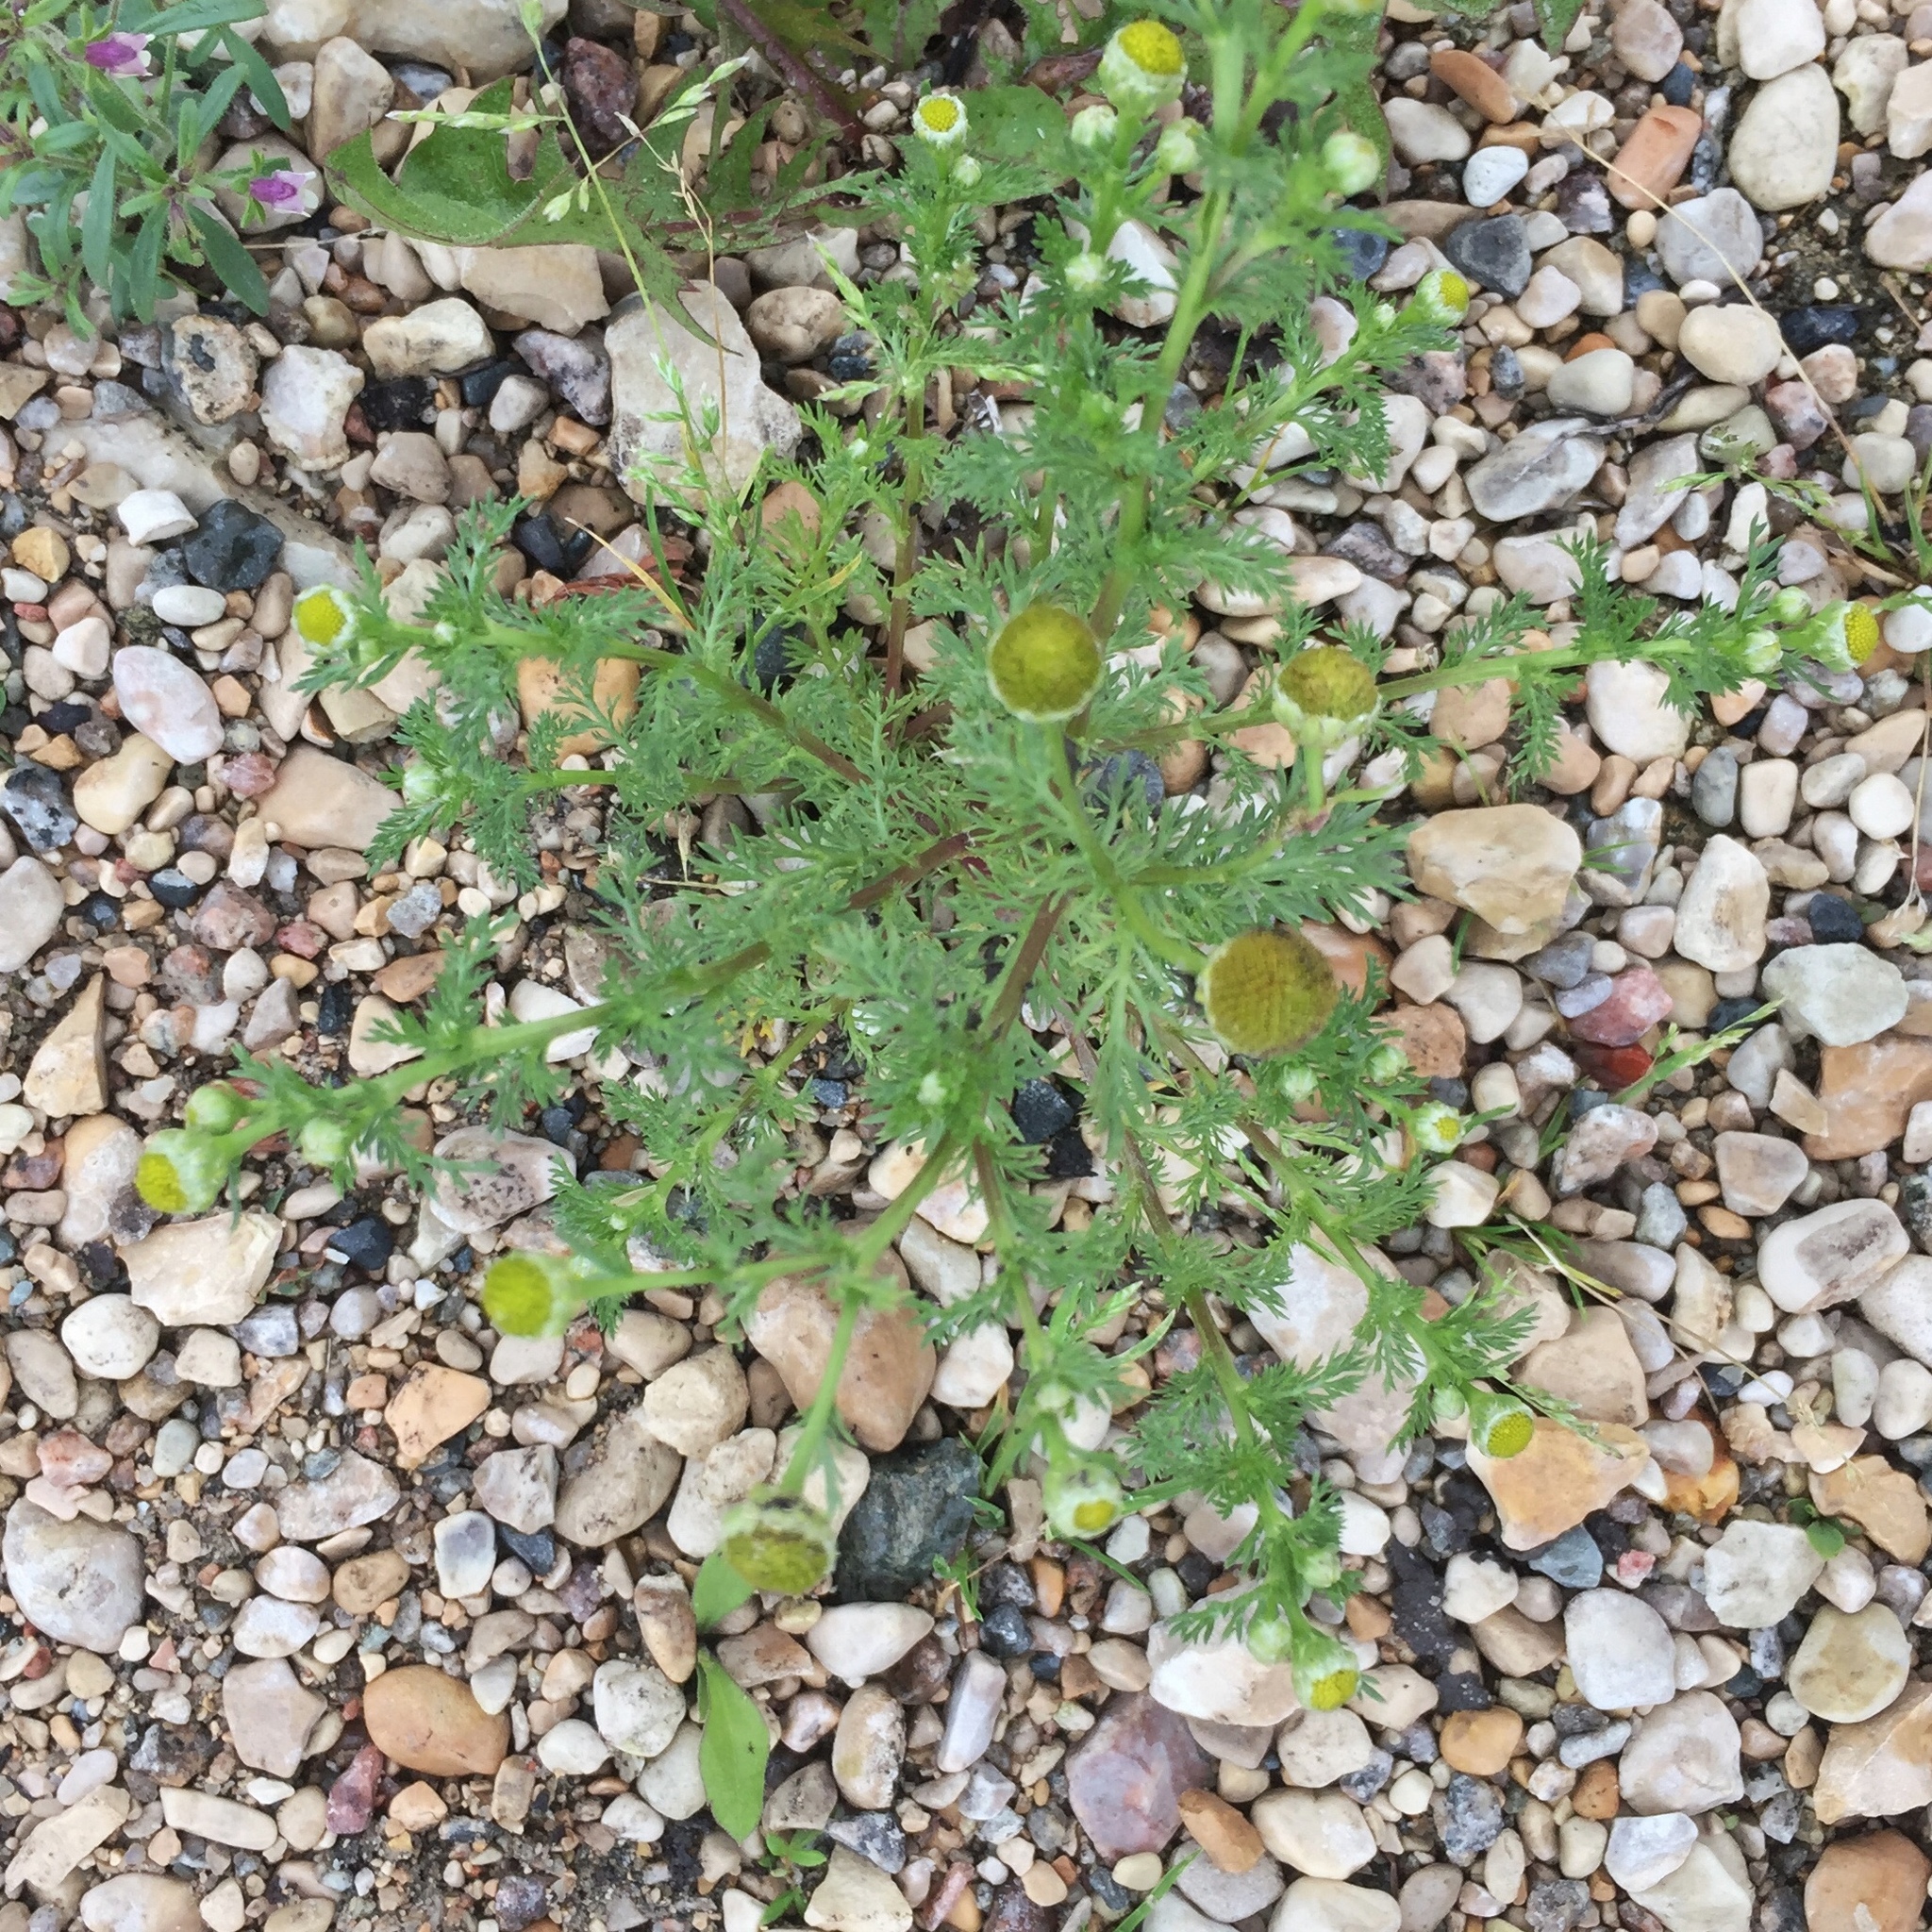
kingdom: Plantae
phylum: Tracheophyta
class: Magnoliopsida
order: Asterales
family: Asteraceae
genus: Matricaria
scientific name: Matricaria discoidea
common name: Disc mayweed
